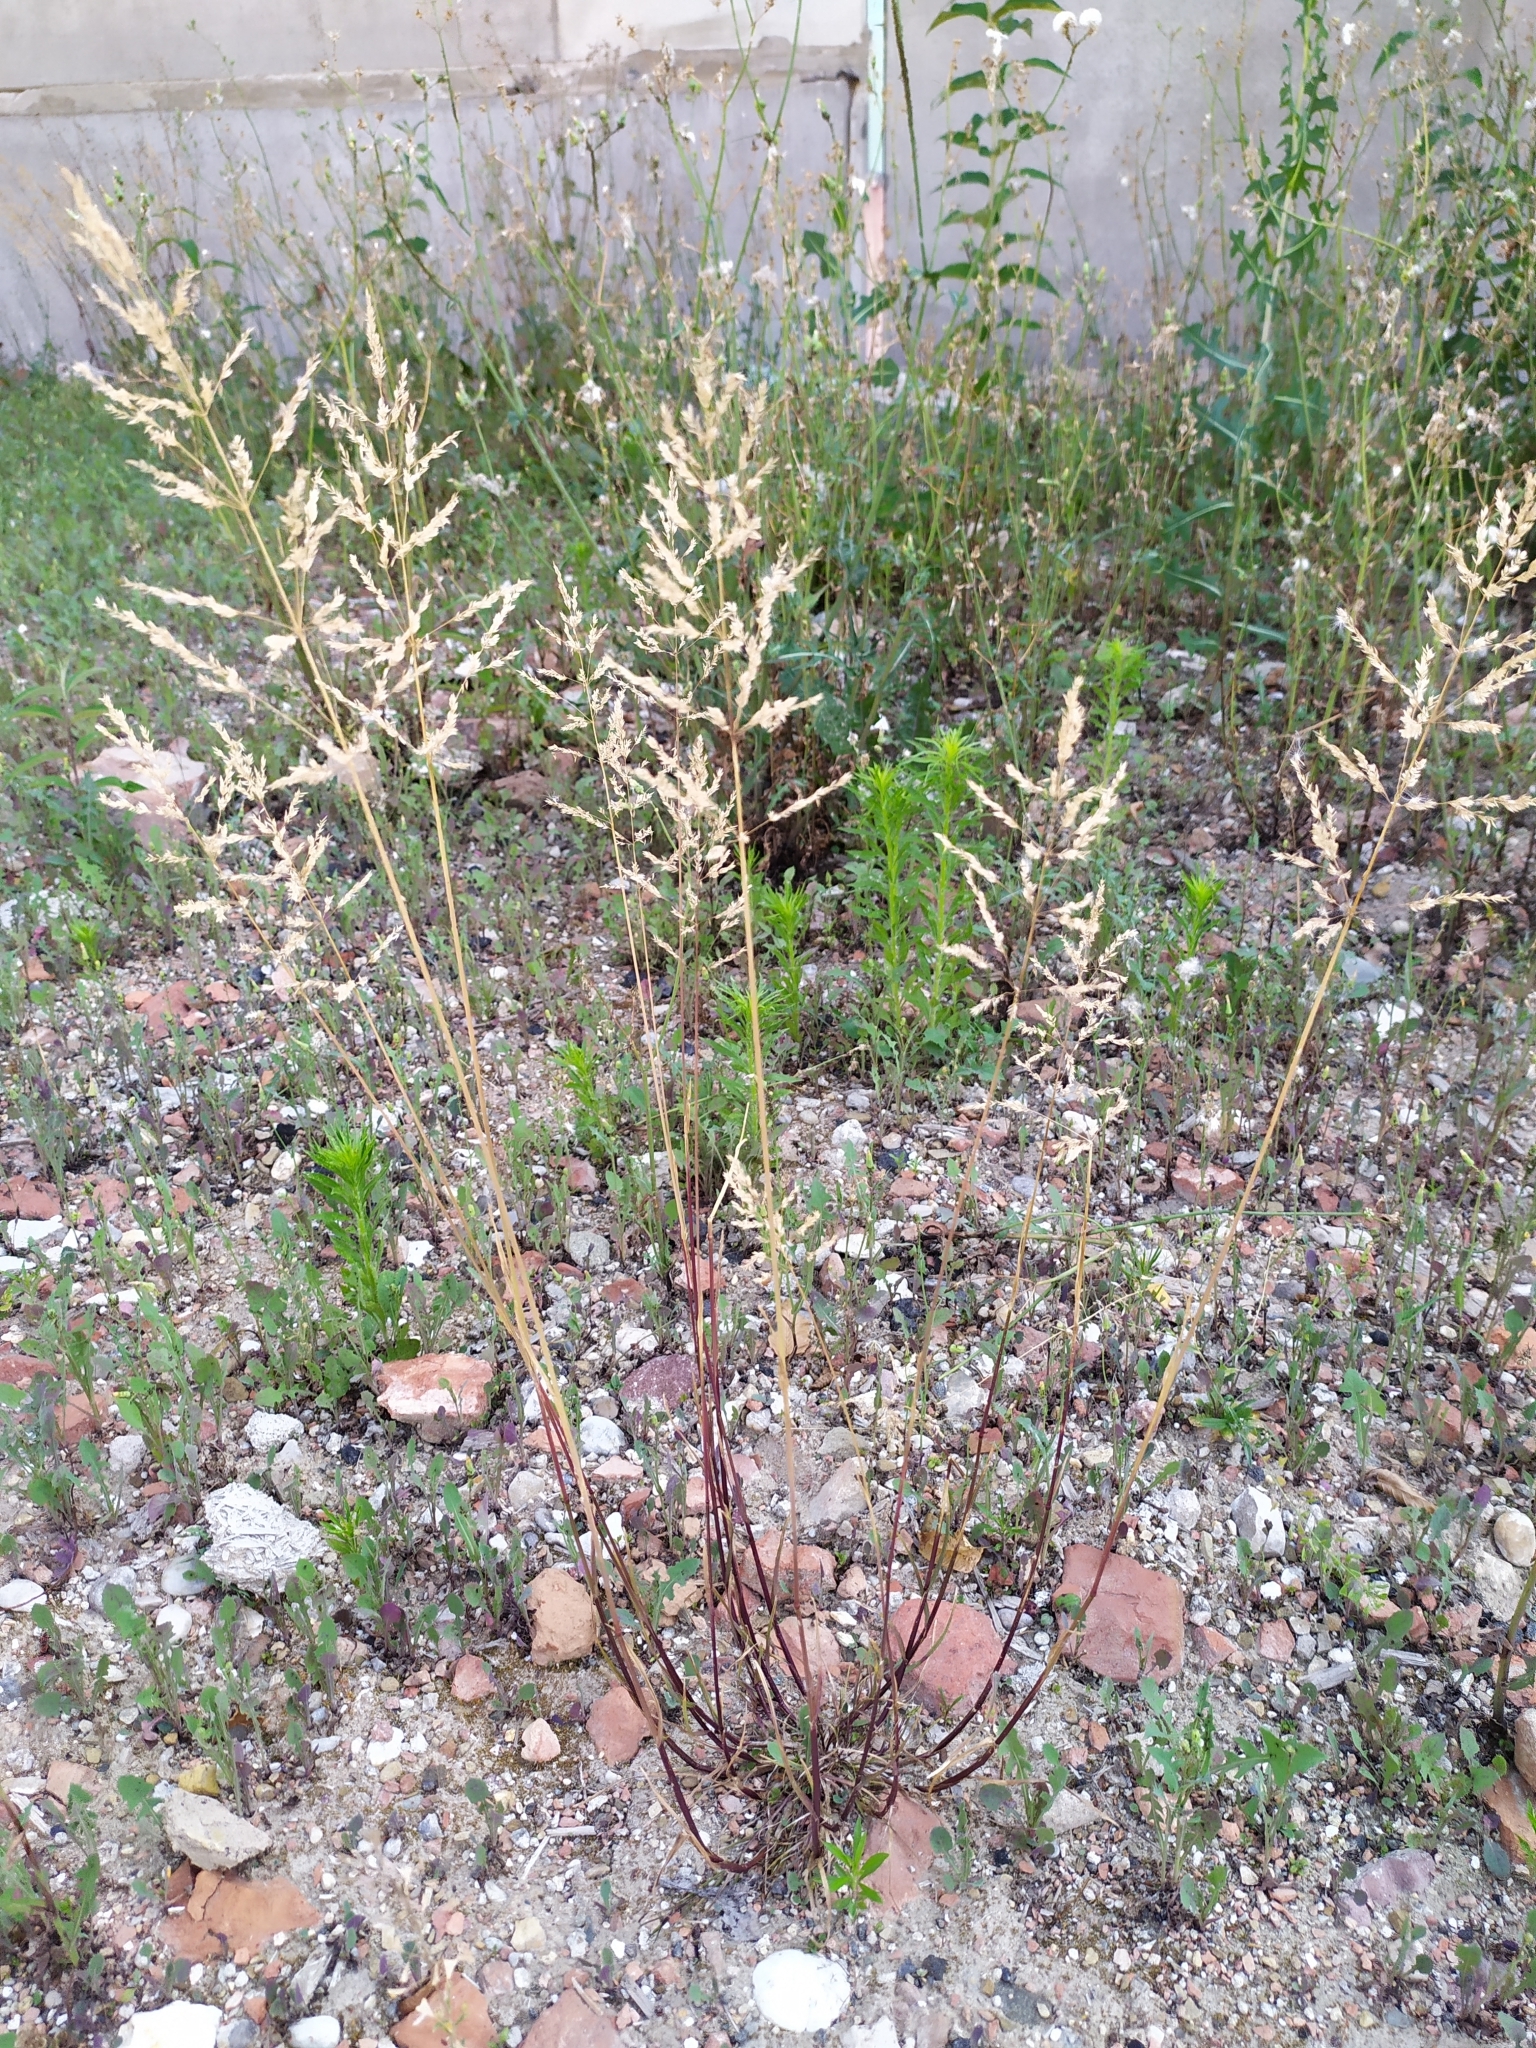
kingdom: Plantae
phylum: Tracheophyta
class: Liliopsida
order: Poales
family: Poaceae
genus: Poa
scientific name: Poa trivialis
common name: Rough bluegrass
